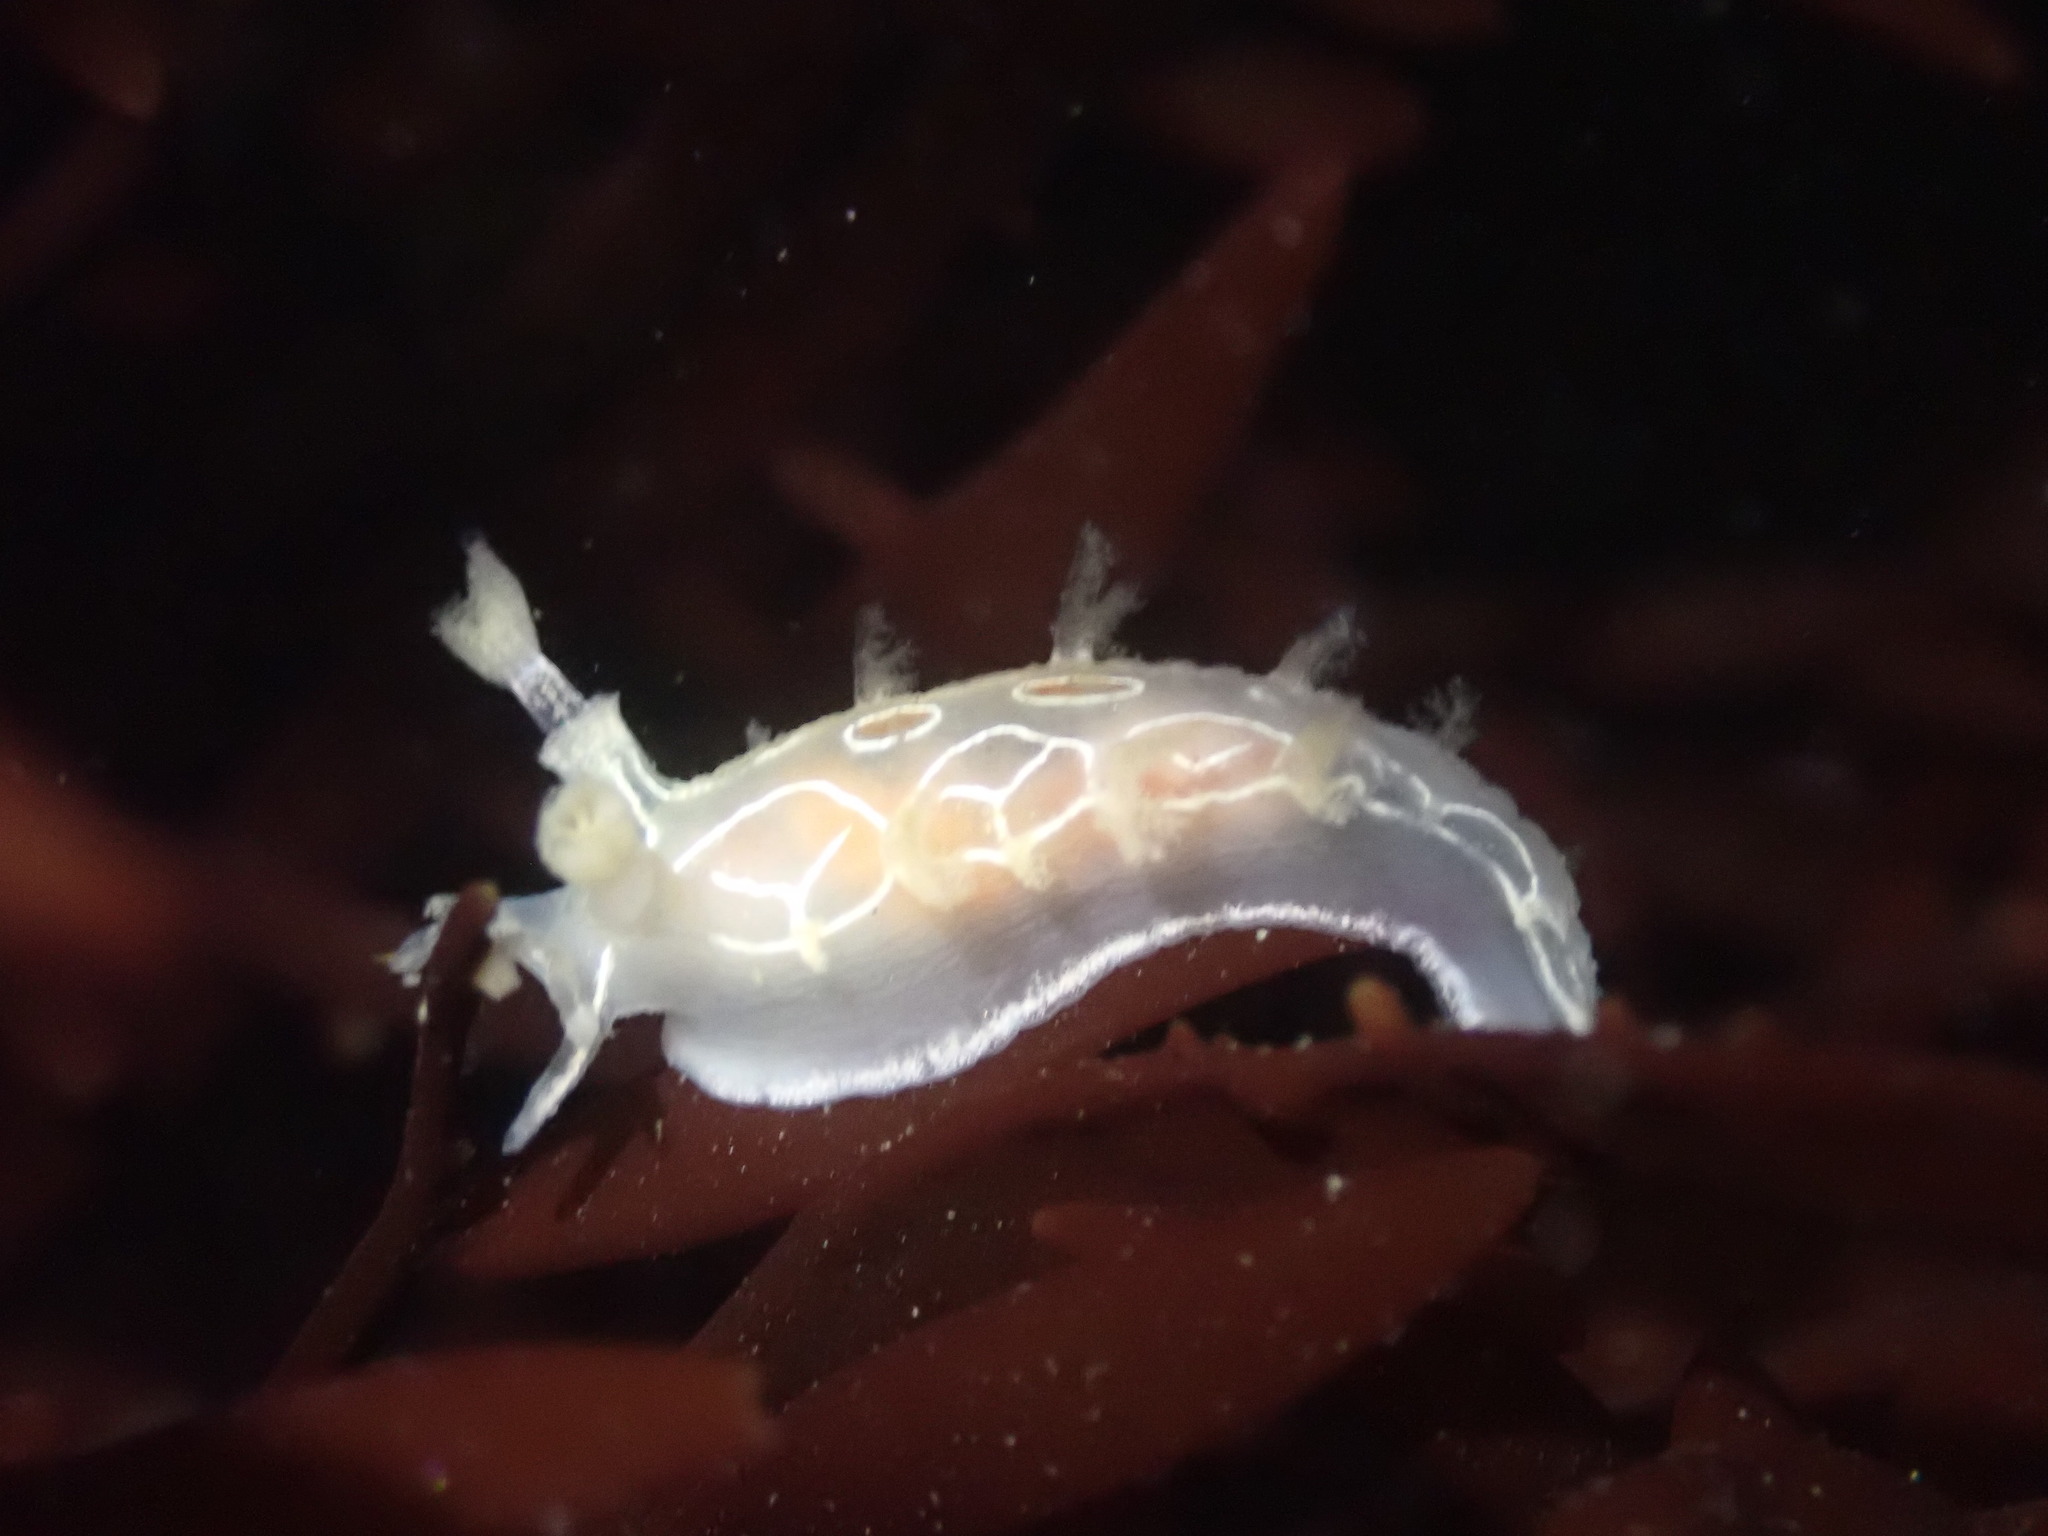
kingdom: Animalia
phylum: Mollusca
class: Gastropoda
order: Nudibranchia
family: Tritoniidae
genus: Tritonia
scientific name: Tritonia festiva
